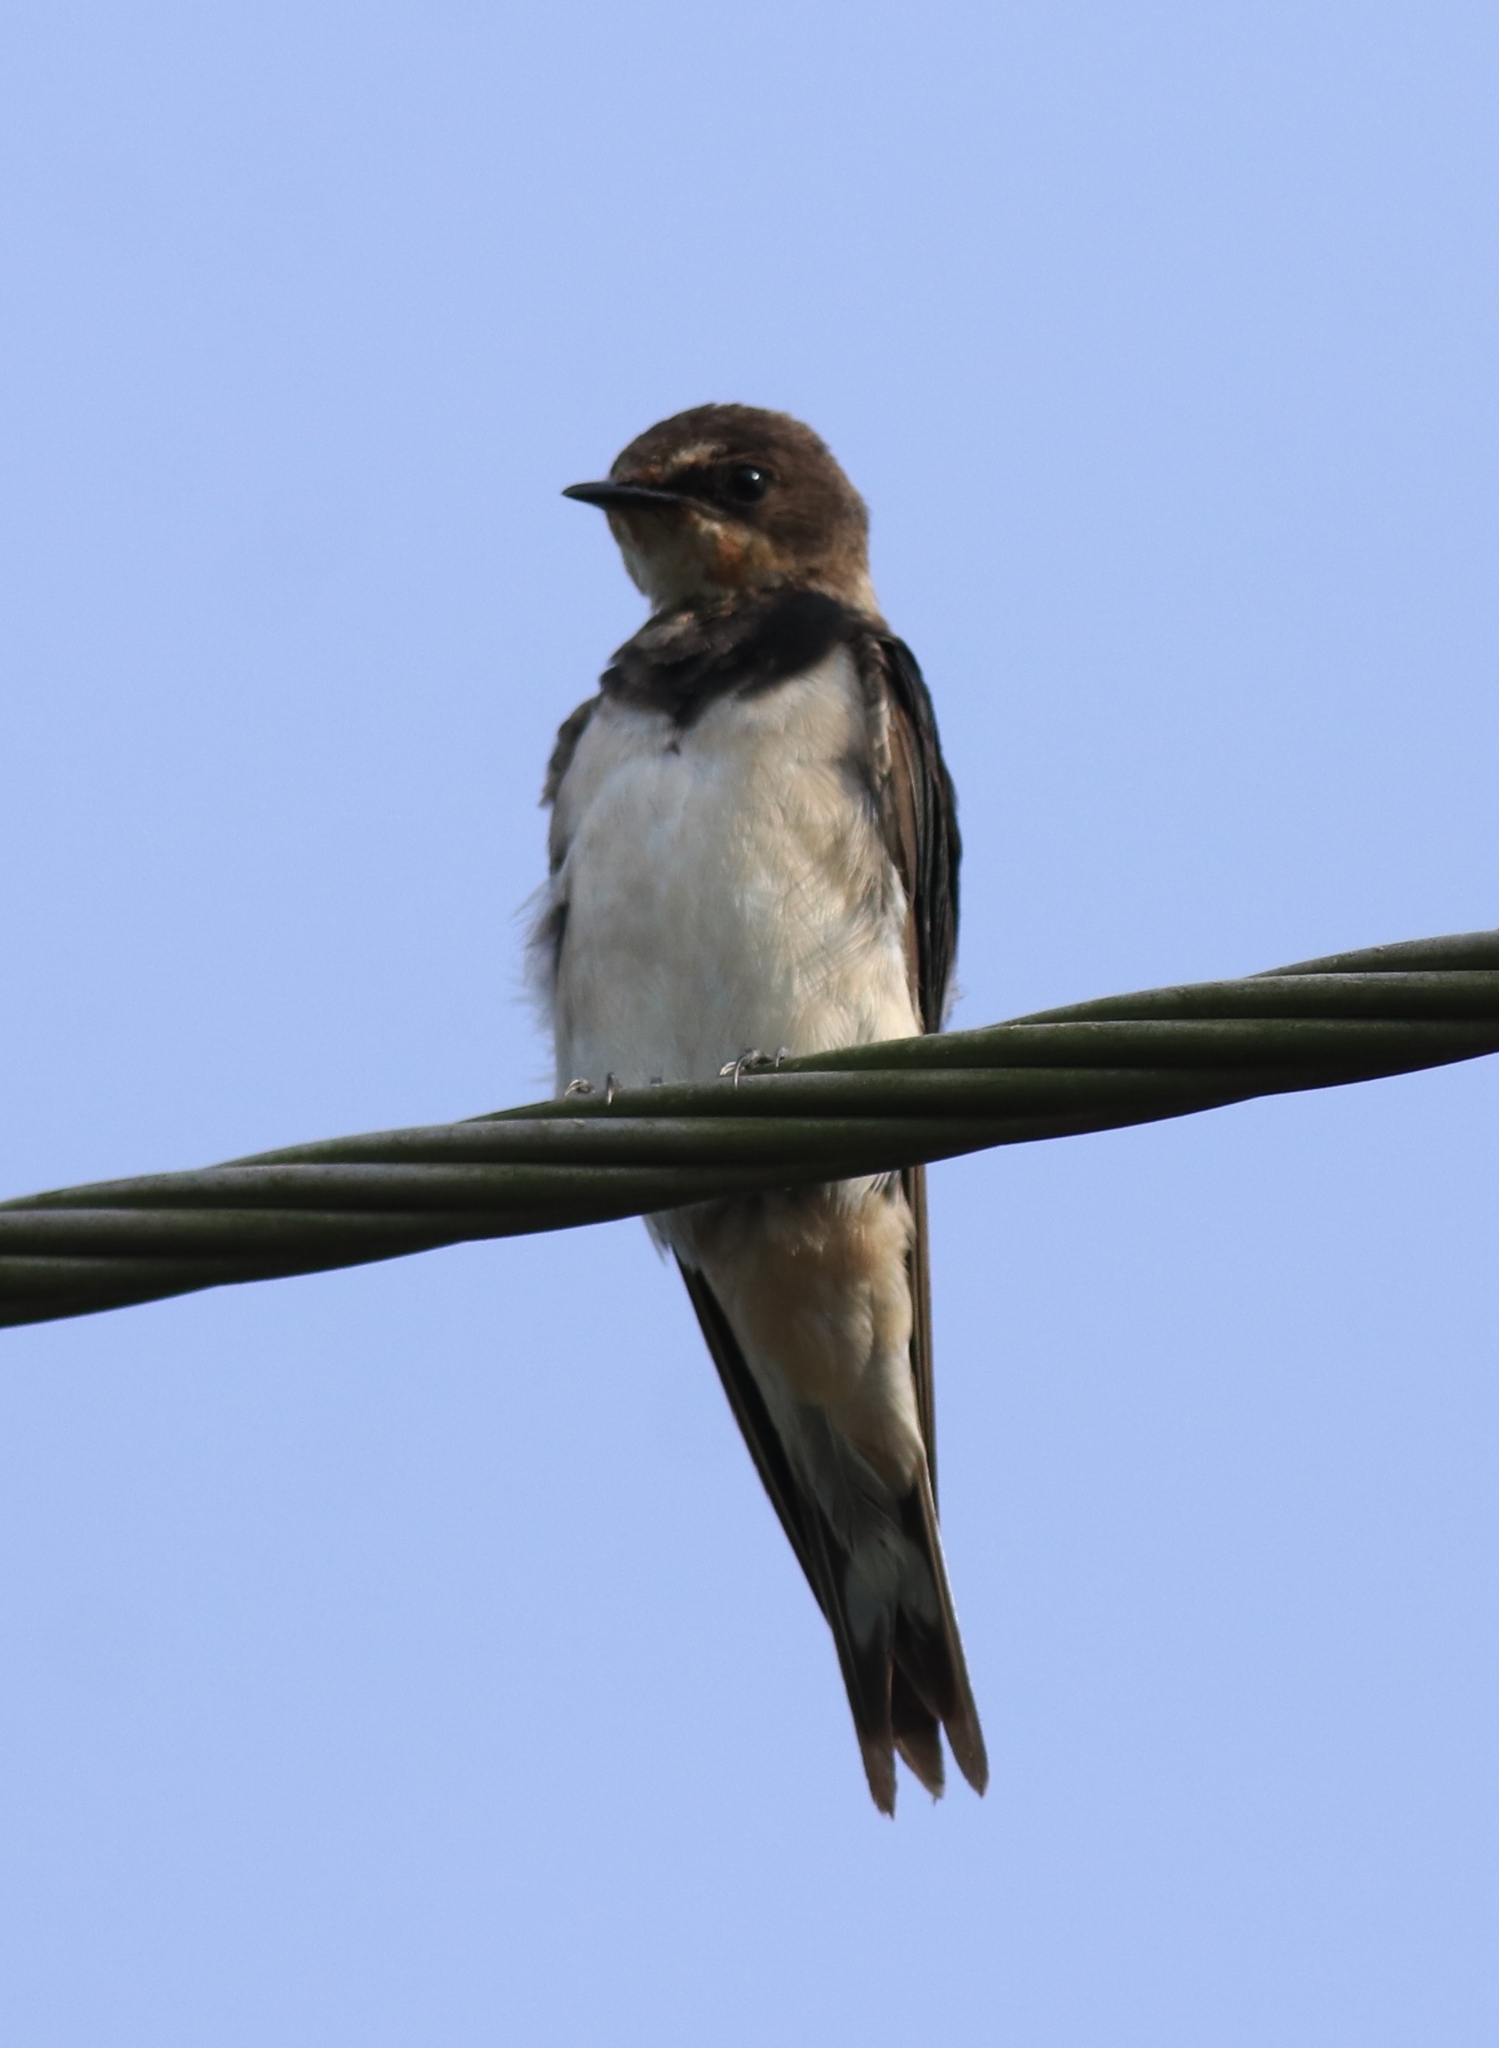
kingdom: Animalia
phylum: Chordata
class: Aves
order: Passeriformes
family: Hirundinidae
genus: Hirundo
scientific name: Hirundo rustica
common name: Barn swallow
